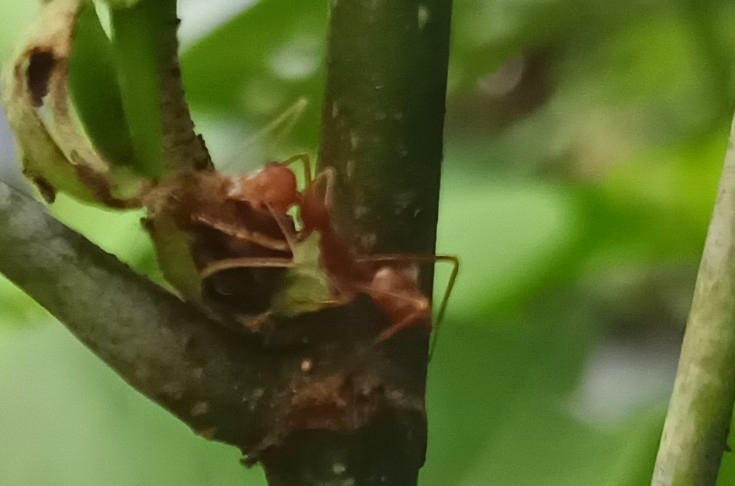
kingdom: Animalia
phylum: Arthropoda
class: Insecta
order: Hymenoptera
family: Formicidae
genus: Oecophylla
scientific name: Oecophylla smaragdina
